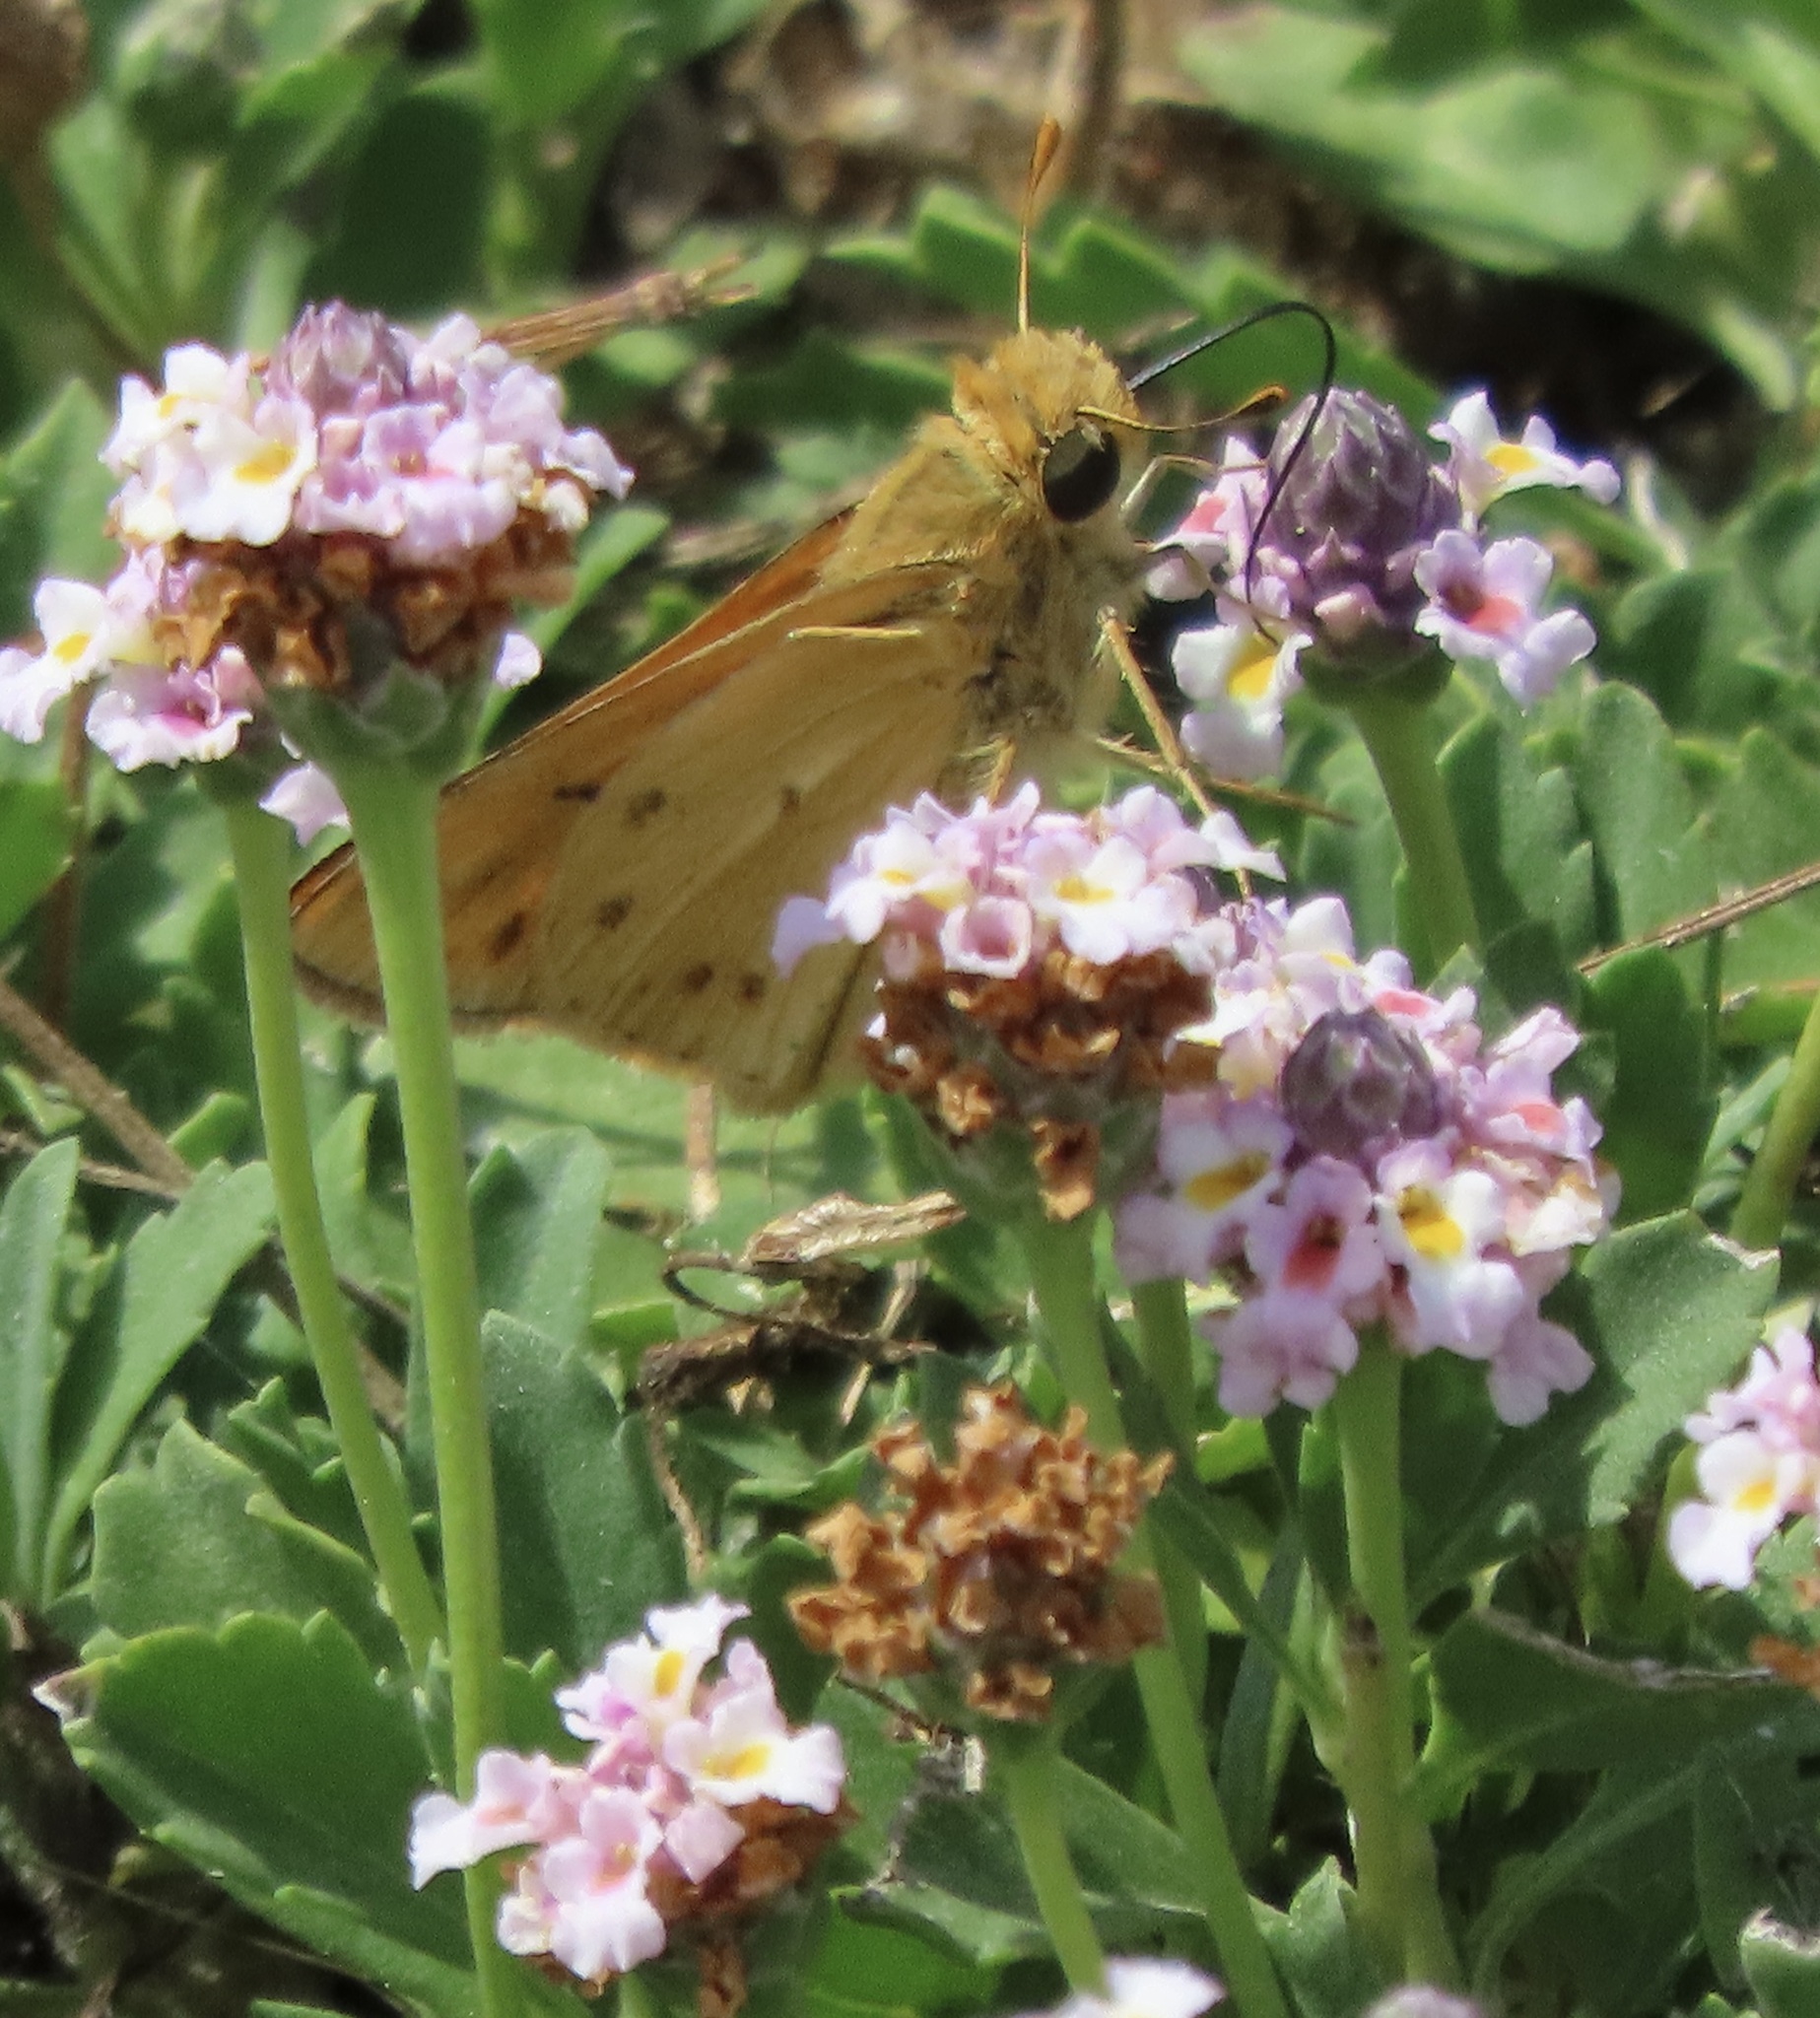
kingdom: Animalia
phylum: Arthropoda
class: Insecta
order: Lepidoptera
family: Hesperiidae
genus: Hylephila
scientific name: Hylephila phyleus
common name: Fiery skipper
